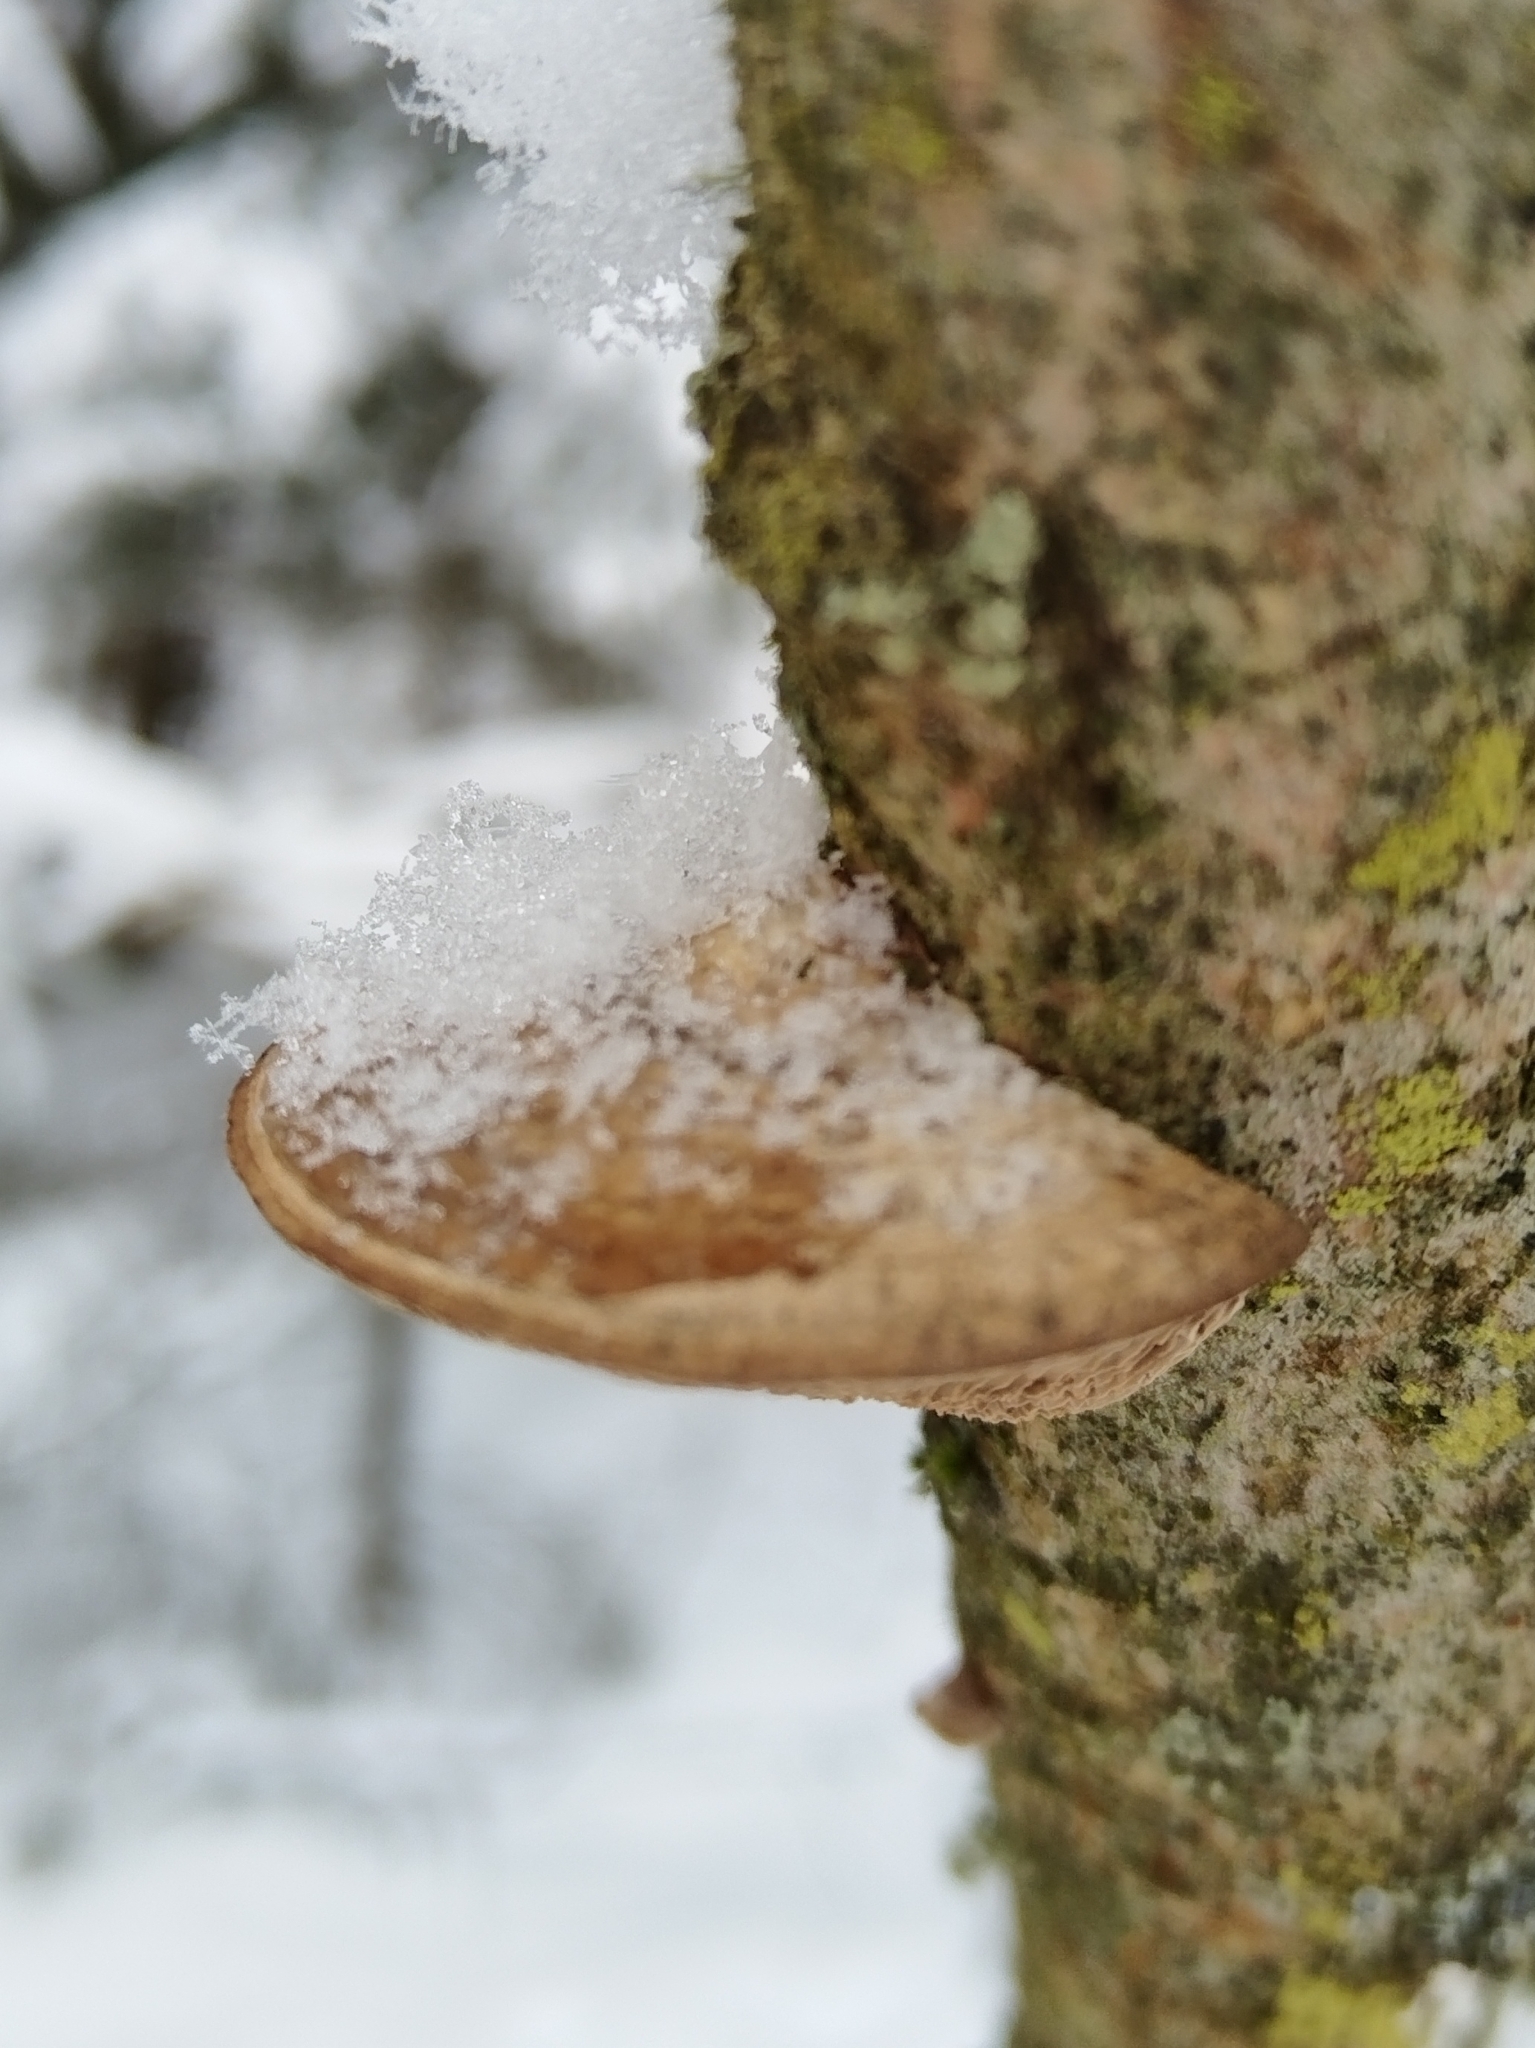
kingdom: Fungi
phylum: Basidiomycota
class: Agaricomycetes
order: Polyporales
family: Fomitopsidaceae
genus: Fomitopsis
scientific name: Fomitopsis
